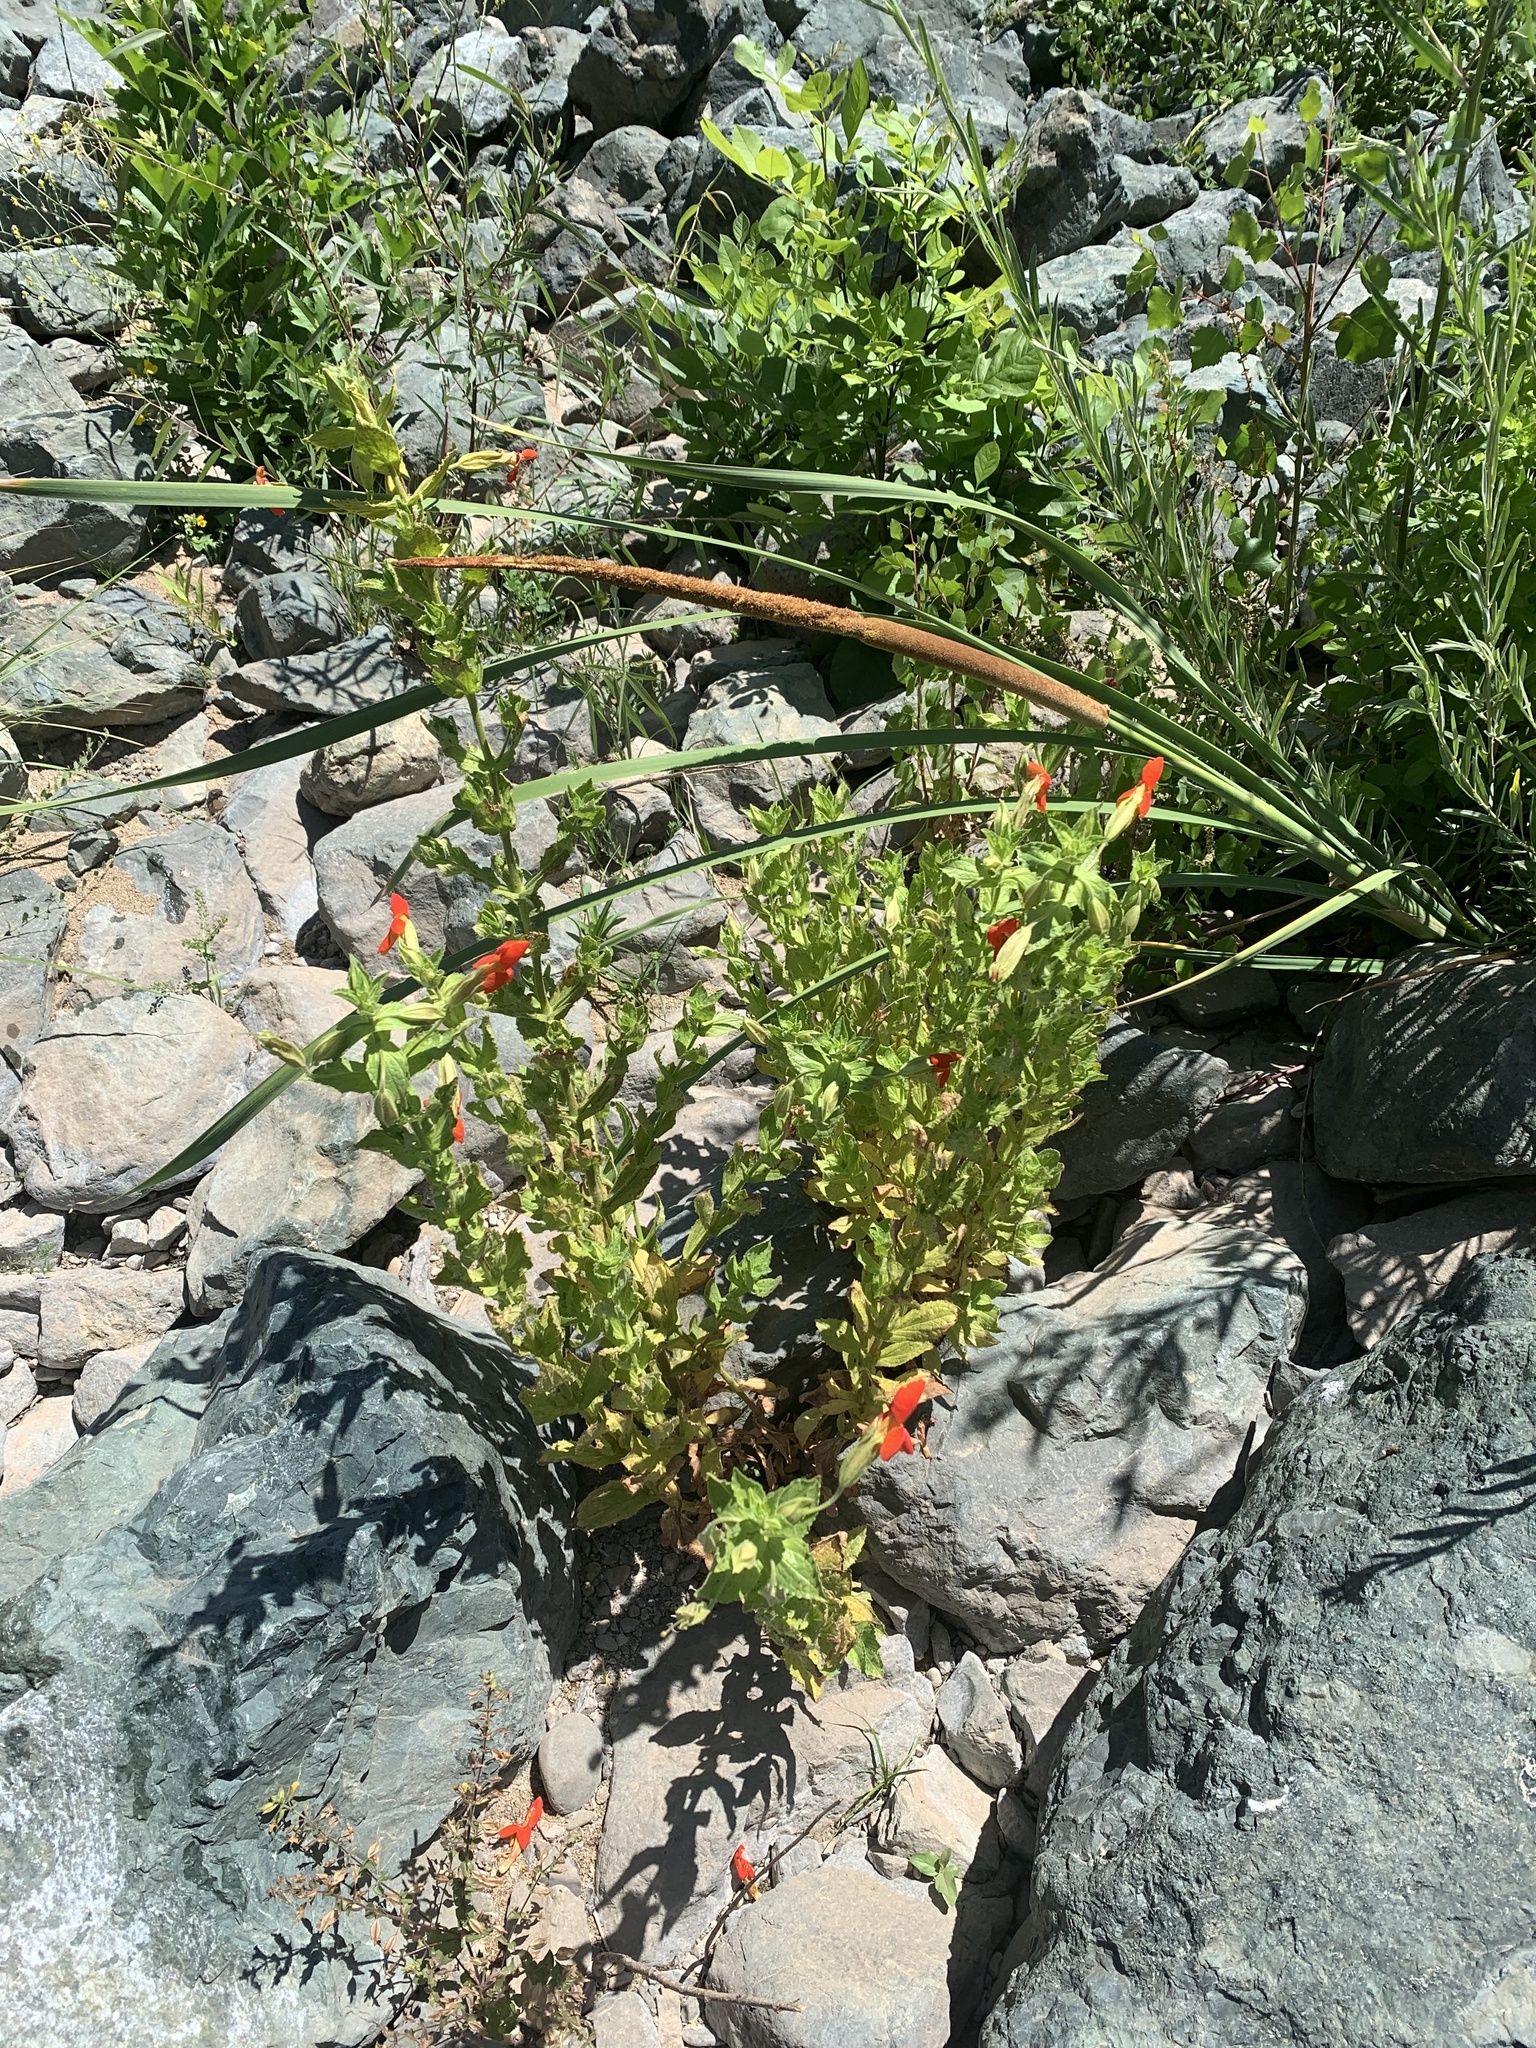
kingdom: Plantae
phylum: Tracheophyta
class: Magnoliopsida
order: Lamiales
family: Phrymaceae
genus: Erythranthe
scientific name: Erythranthe cardinalis
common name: Scarlet monkey-flower
